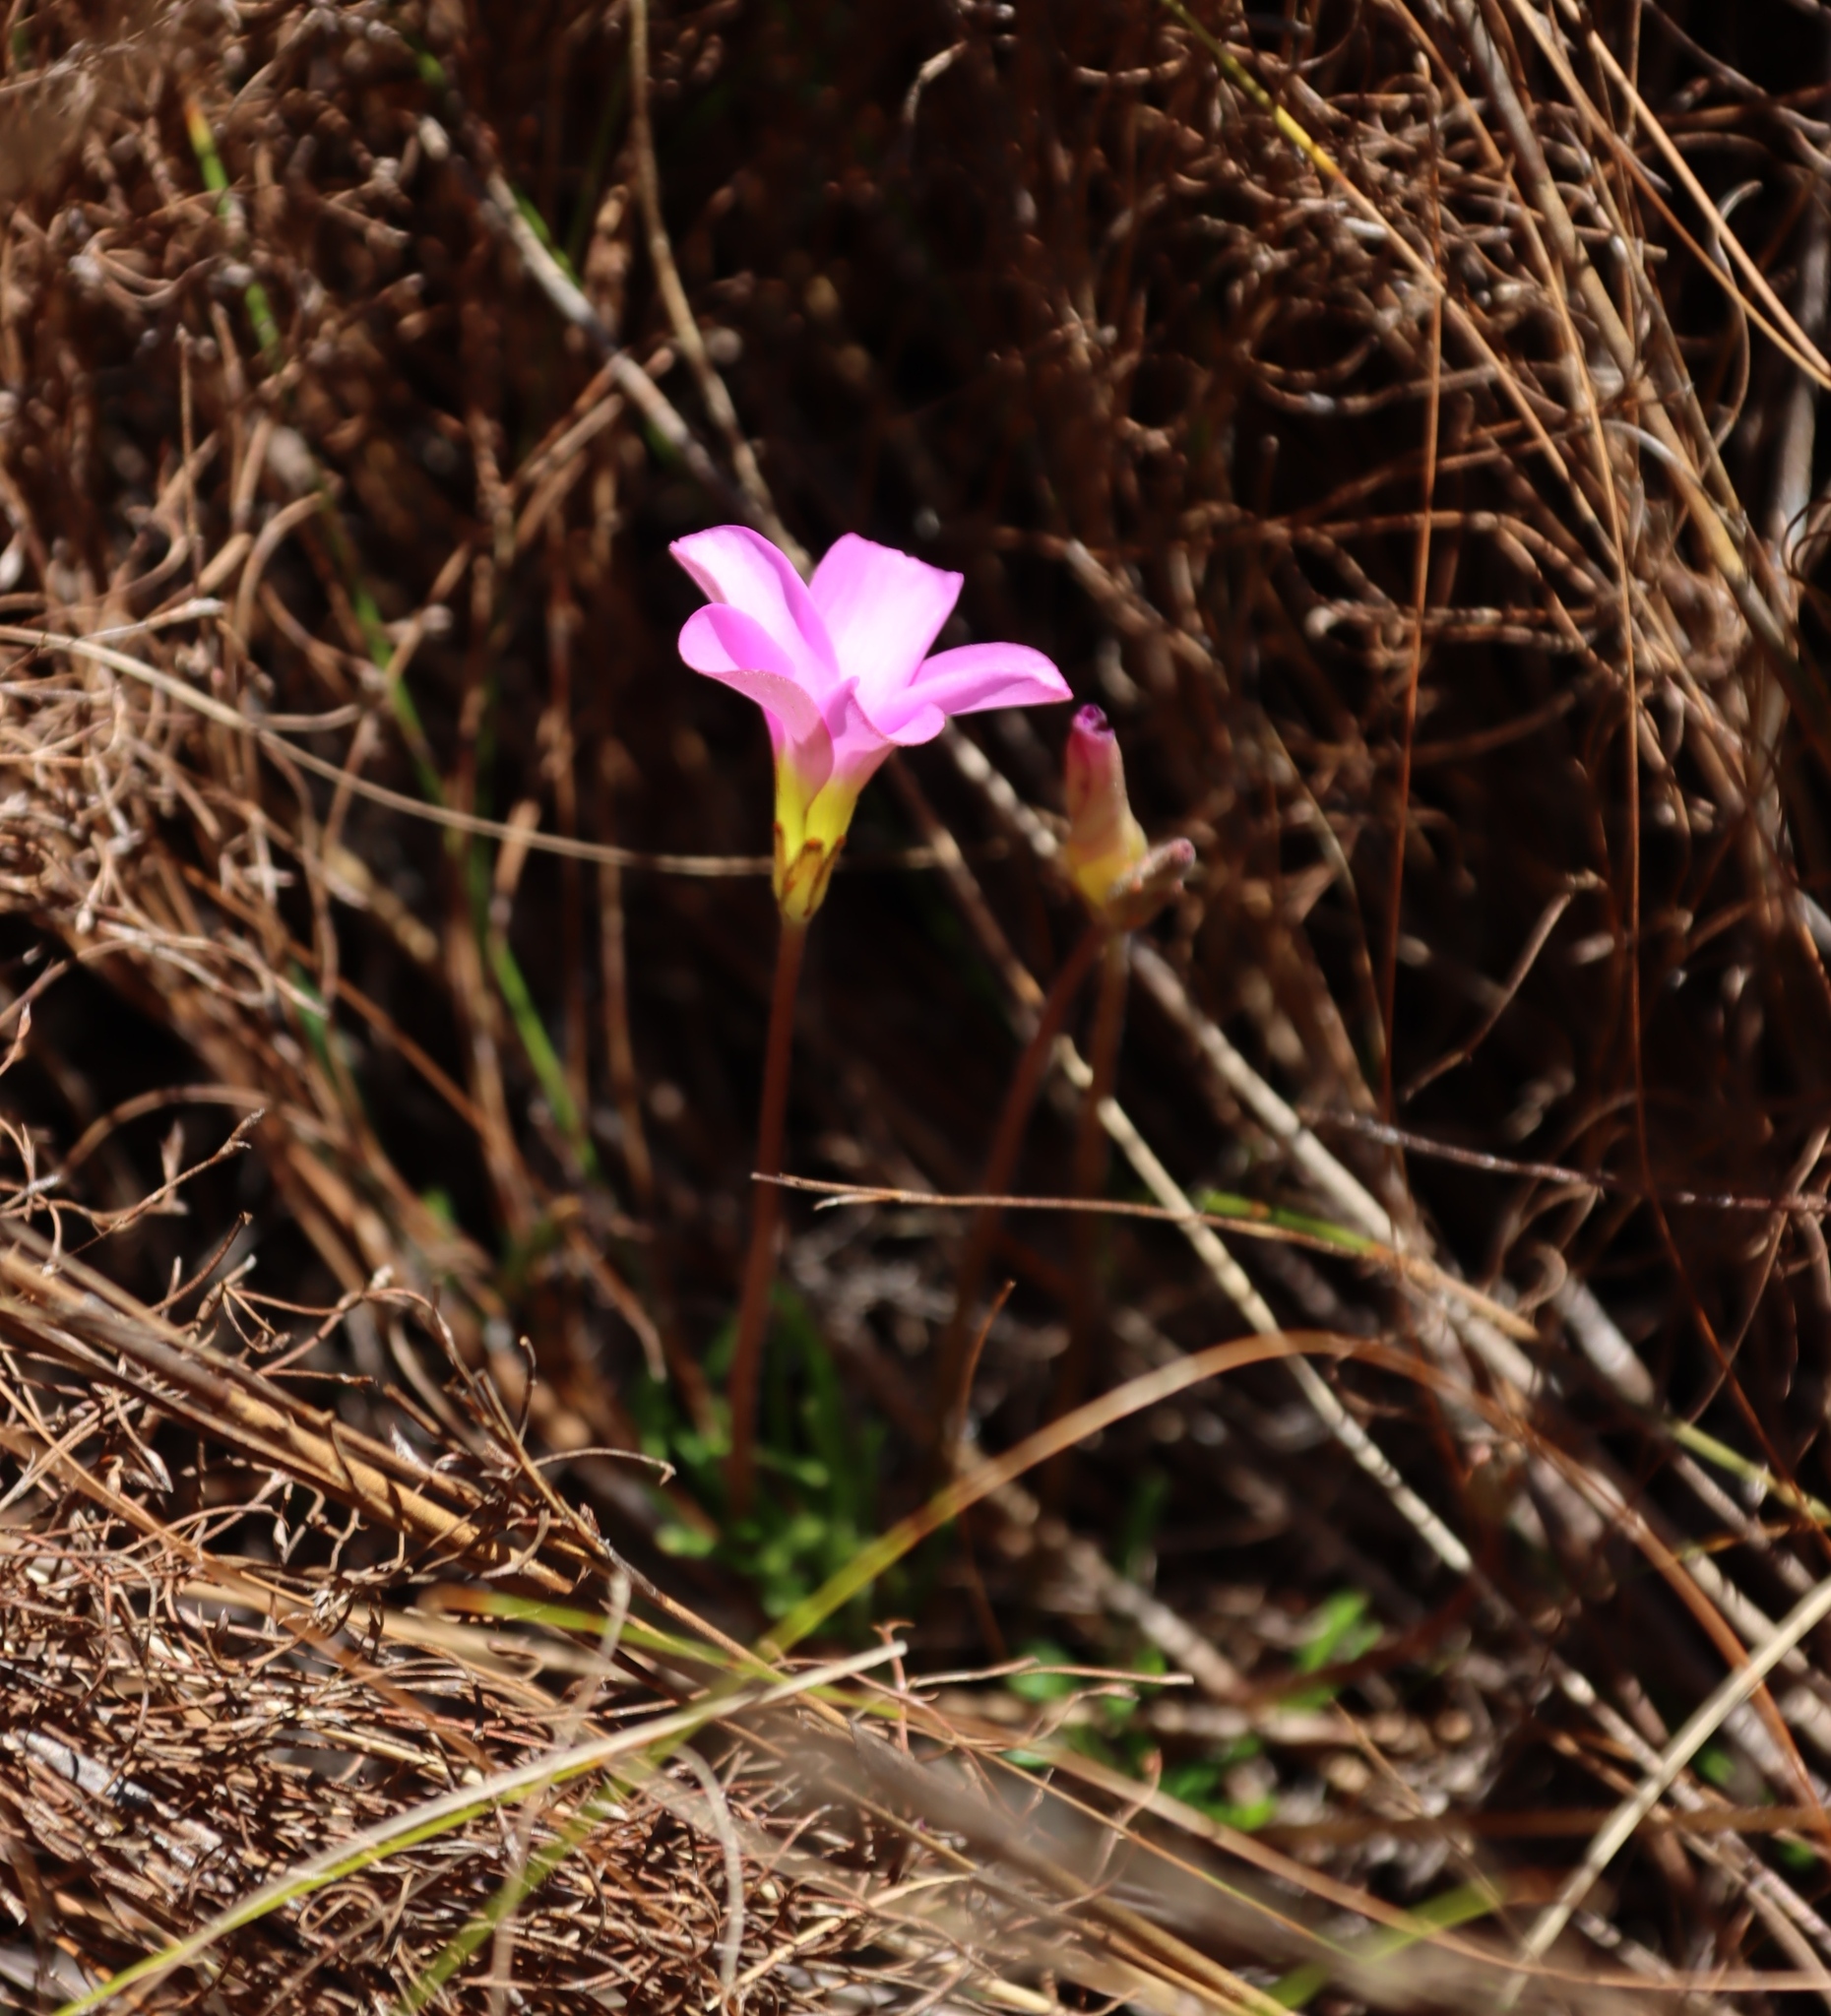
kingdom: Plantae
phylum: Tracheophyta
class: Magnoliopsida
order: Oxalidales
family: Oxalidaceae
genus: Oxalis
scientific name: Oxalis polyphylla
